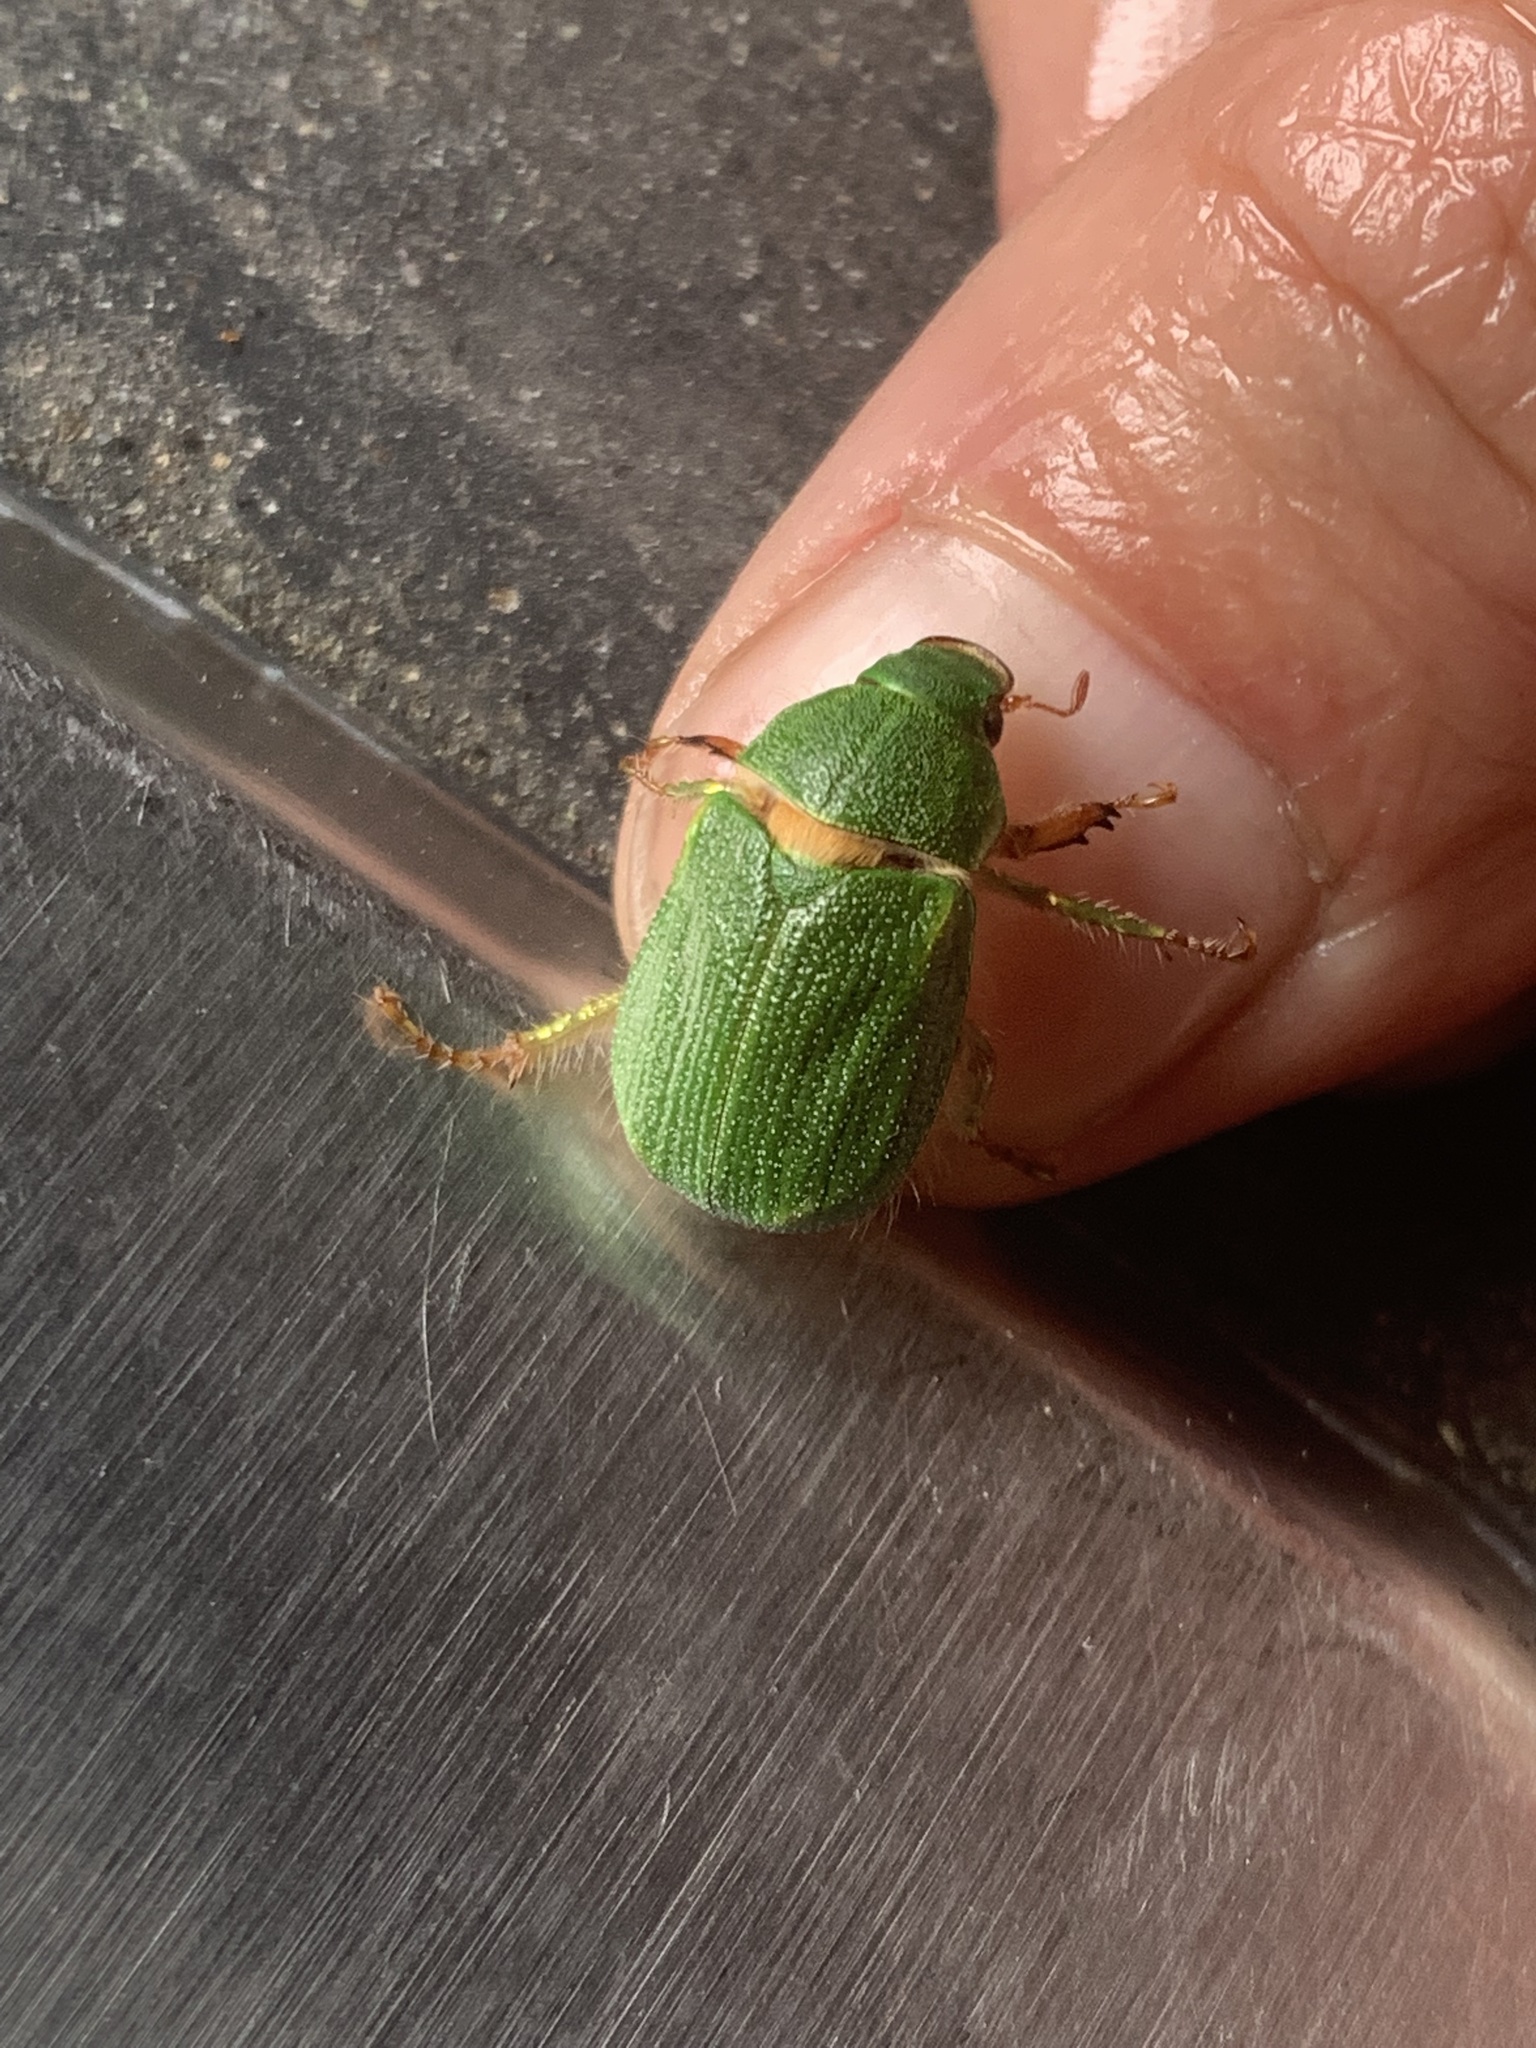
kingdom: Animalia
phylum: Arthropoda
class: Insecta
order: Coleoptera
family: Scarabaeidae
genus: Hylamorpha
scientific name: Hylamorpha elegans
